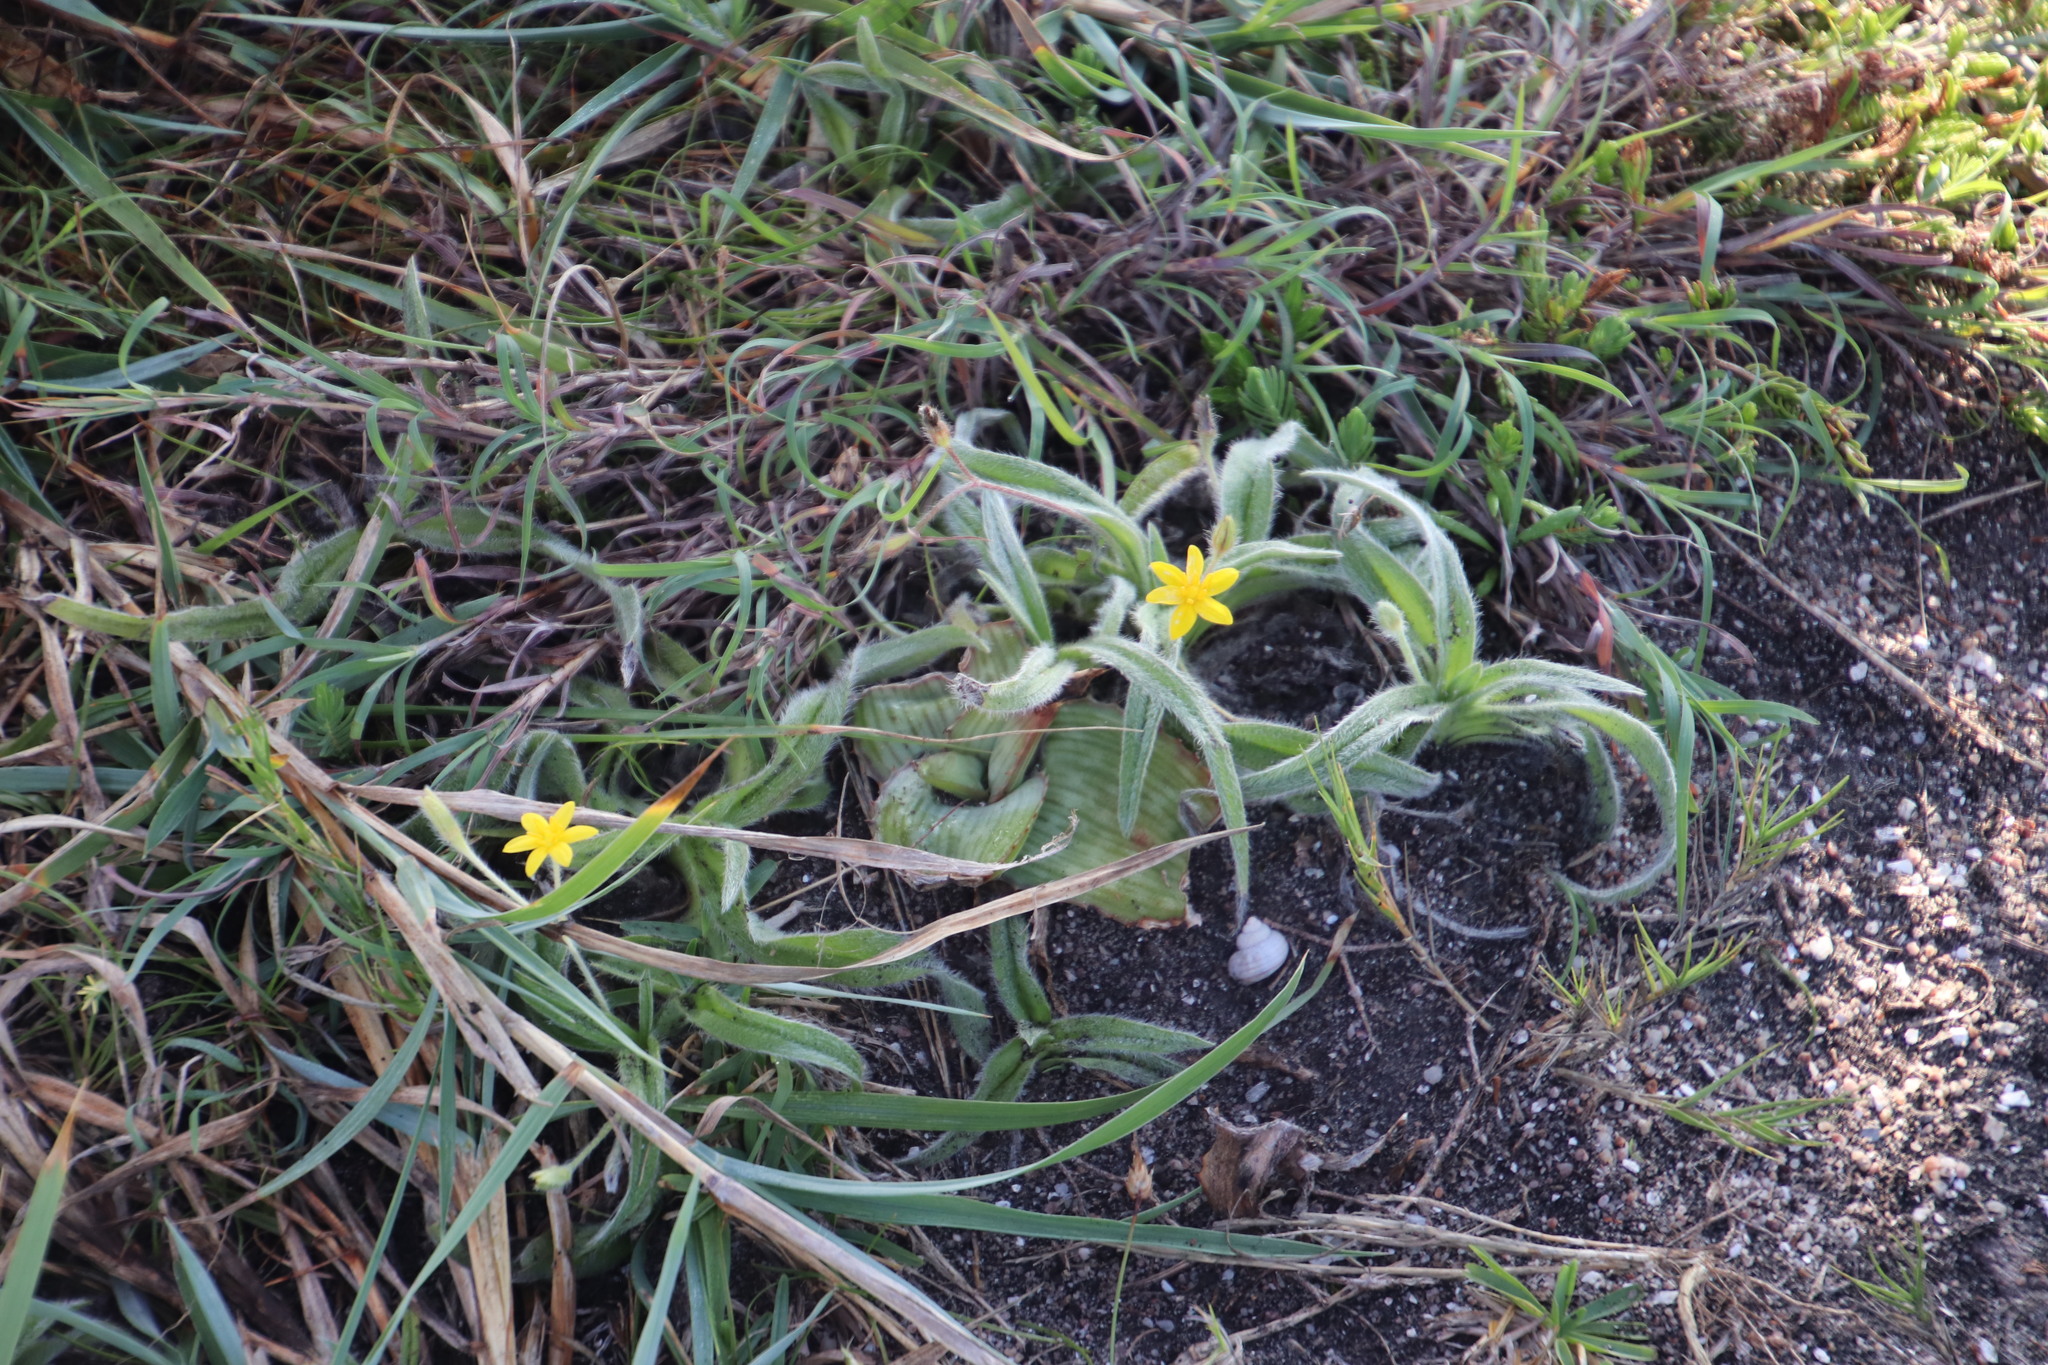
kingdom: Plantae
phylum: Tracheophyta
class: Liliopsida
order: Asparagales
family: Hypoxidaceae
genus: Hypoxis
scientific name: Hypoxis sobolifera
